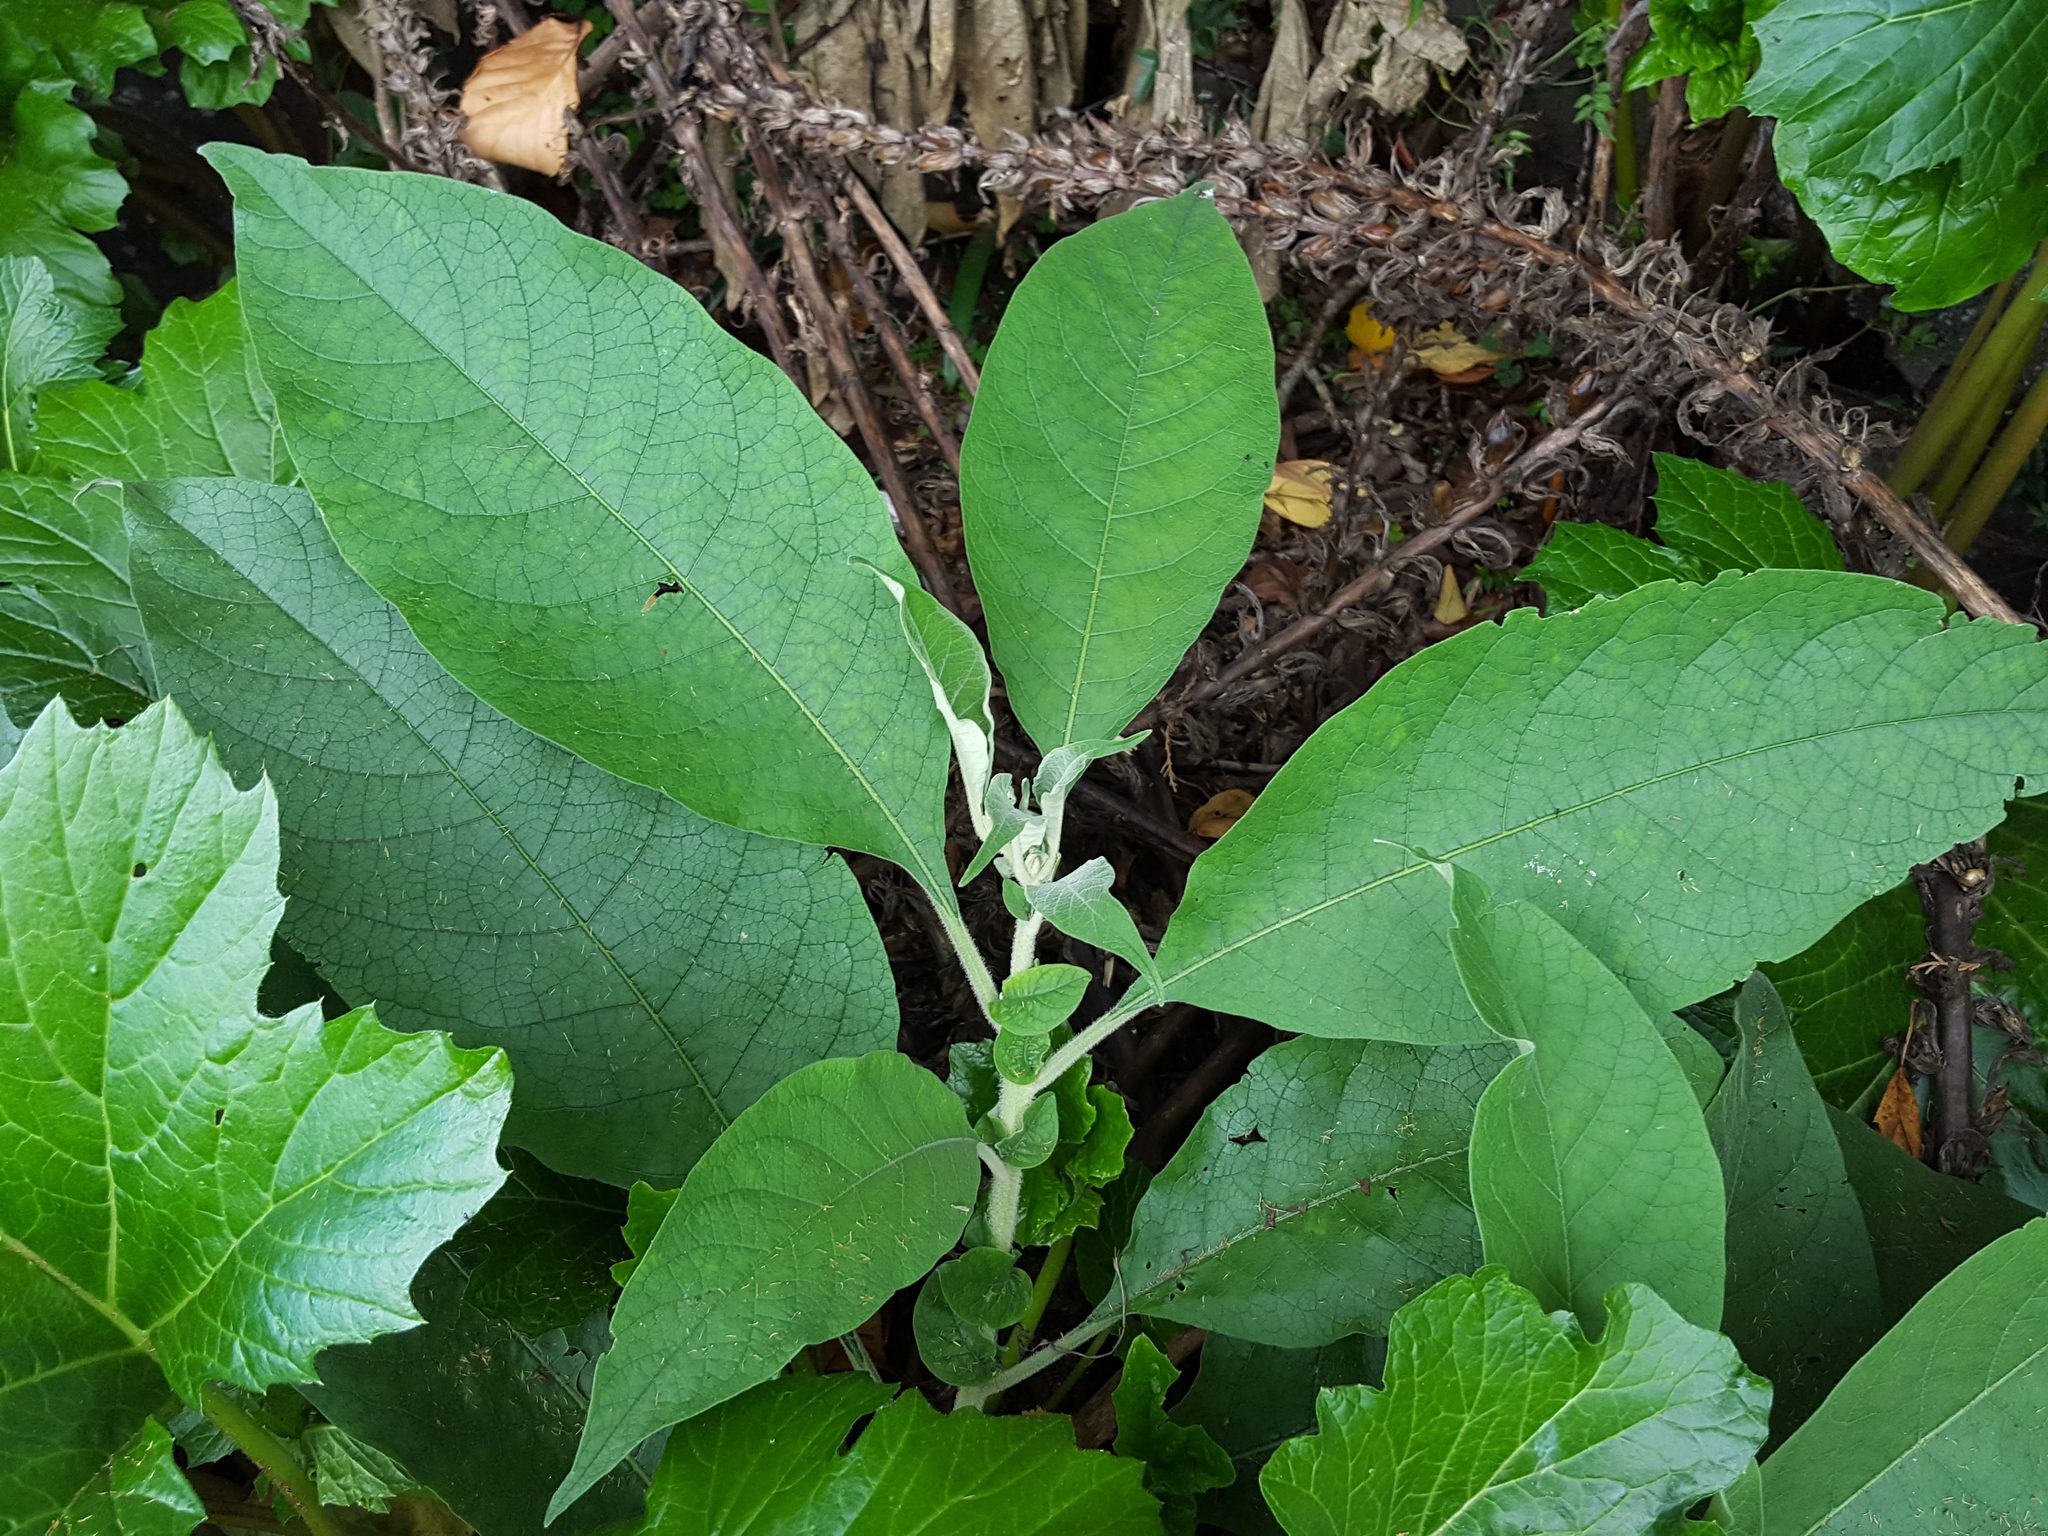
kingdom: Plantae
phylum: Tracheophyta
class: Magnoliopsida
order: Solanales
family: Solanaceae
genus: Solanum
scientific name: Solanum mauritianum
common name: Earleaf nightshade
